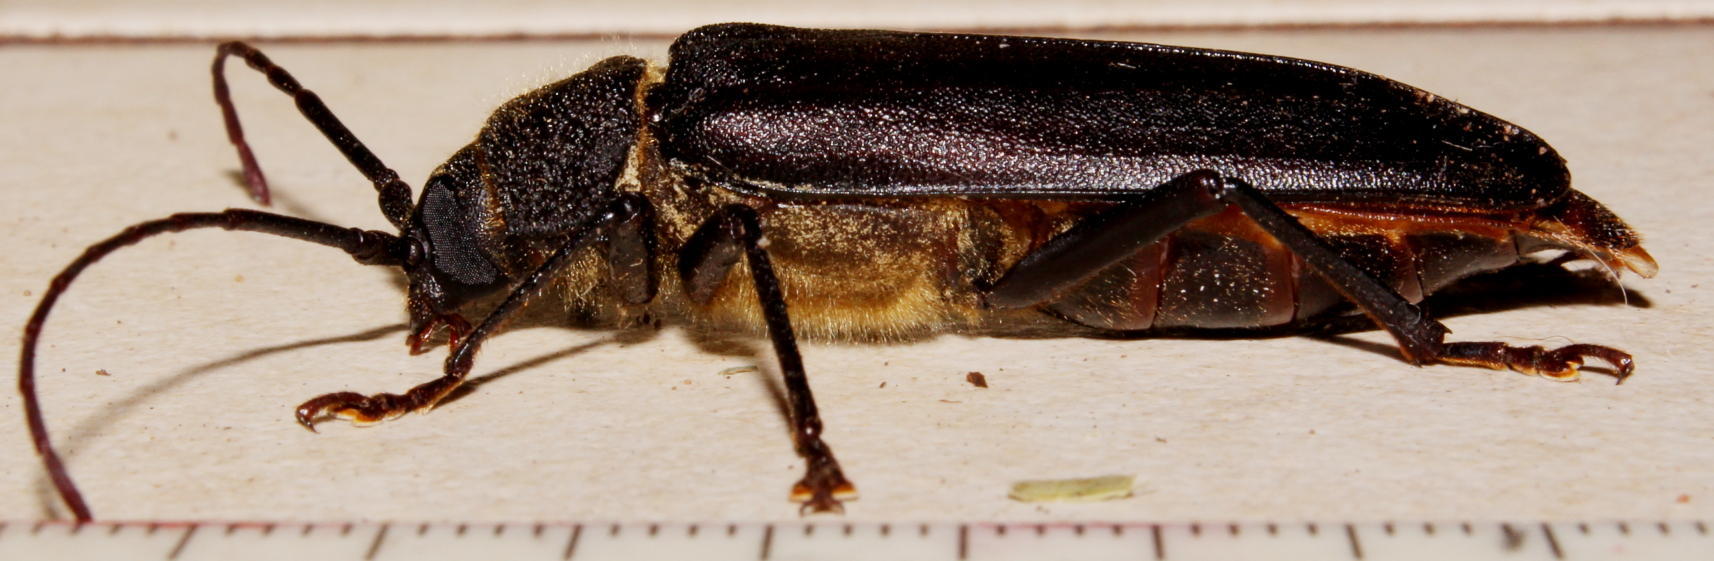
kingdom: Animalia
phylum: Arthropoda
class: Insecta
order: Coleoptera
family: Cerambycidae
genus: Phlyctenosis
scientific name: Phlyctenosis micros
